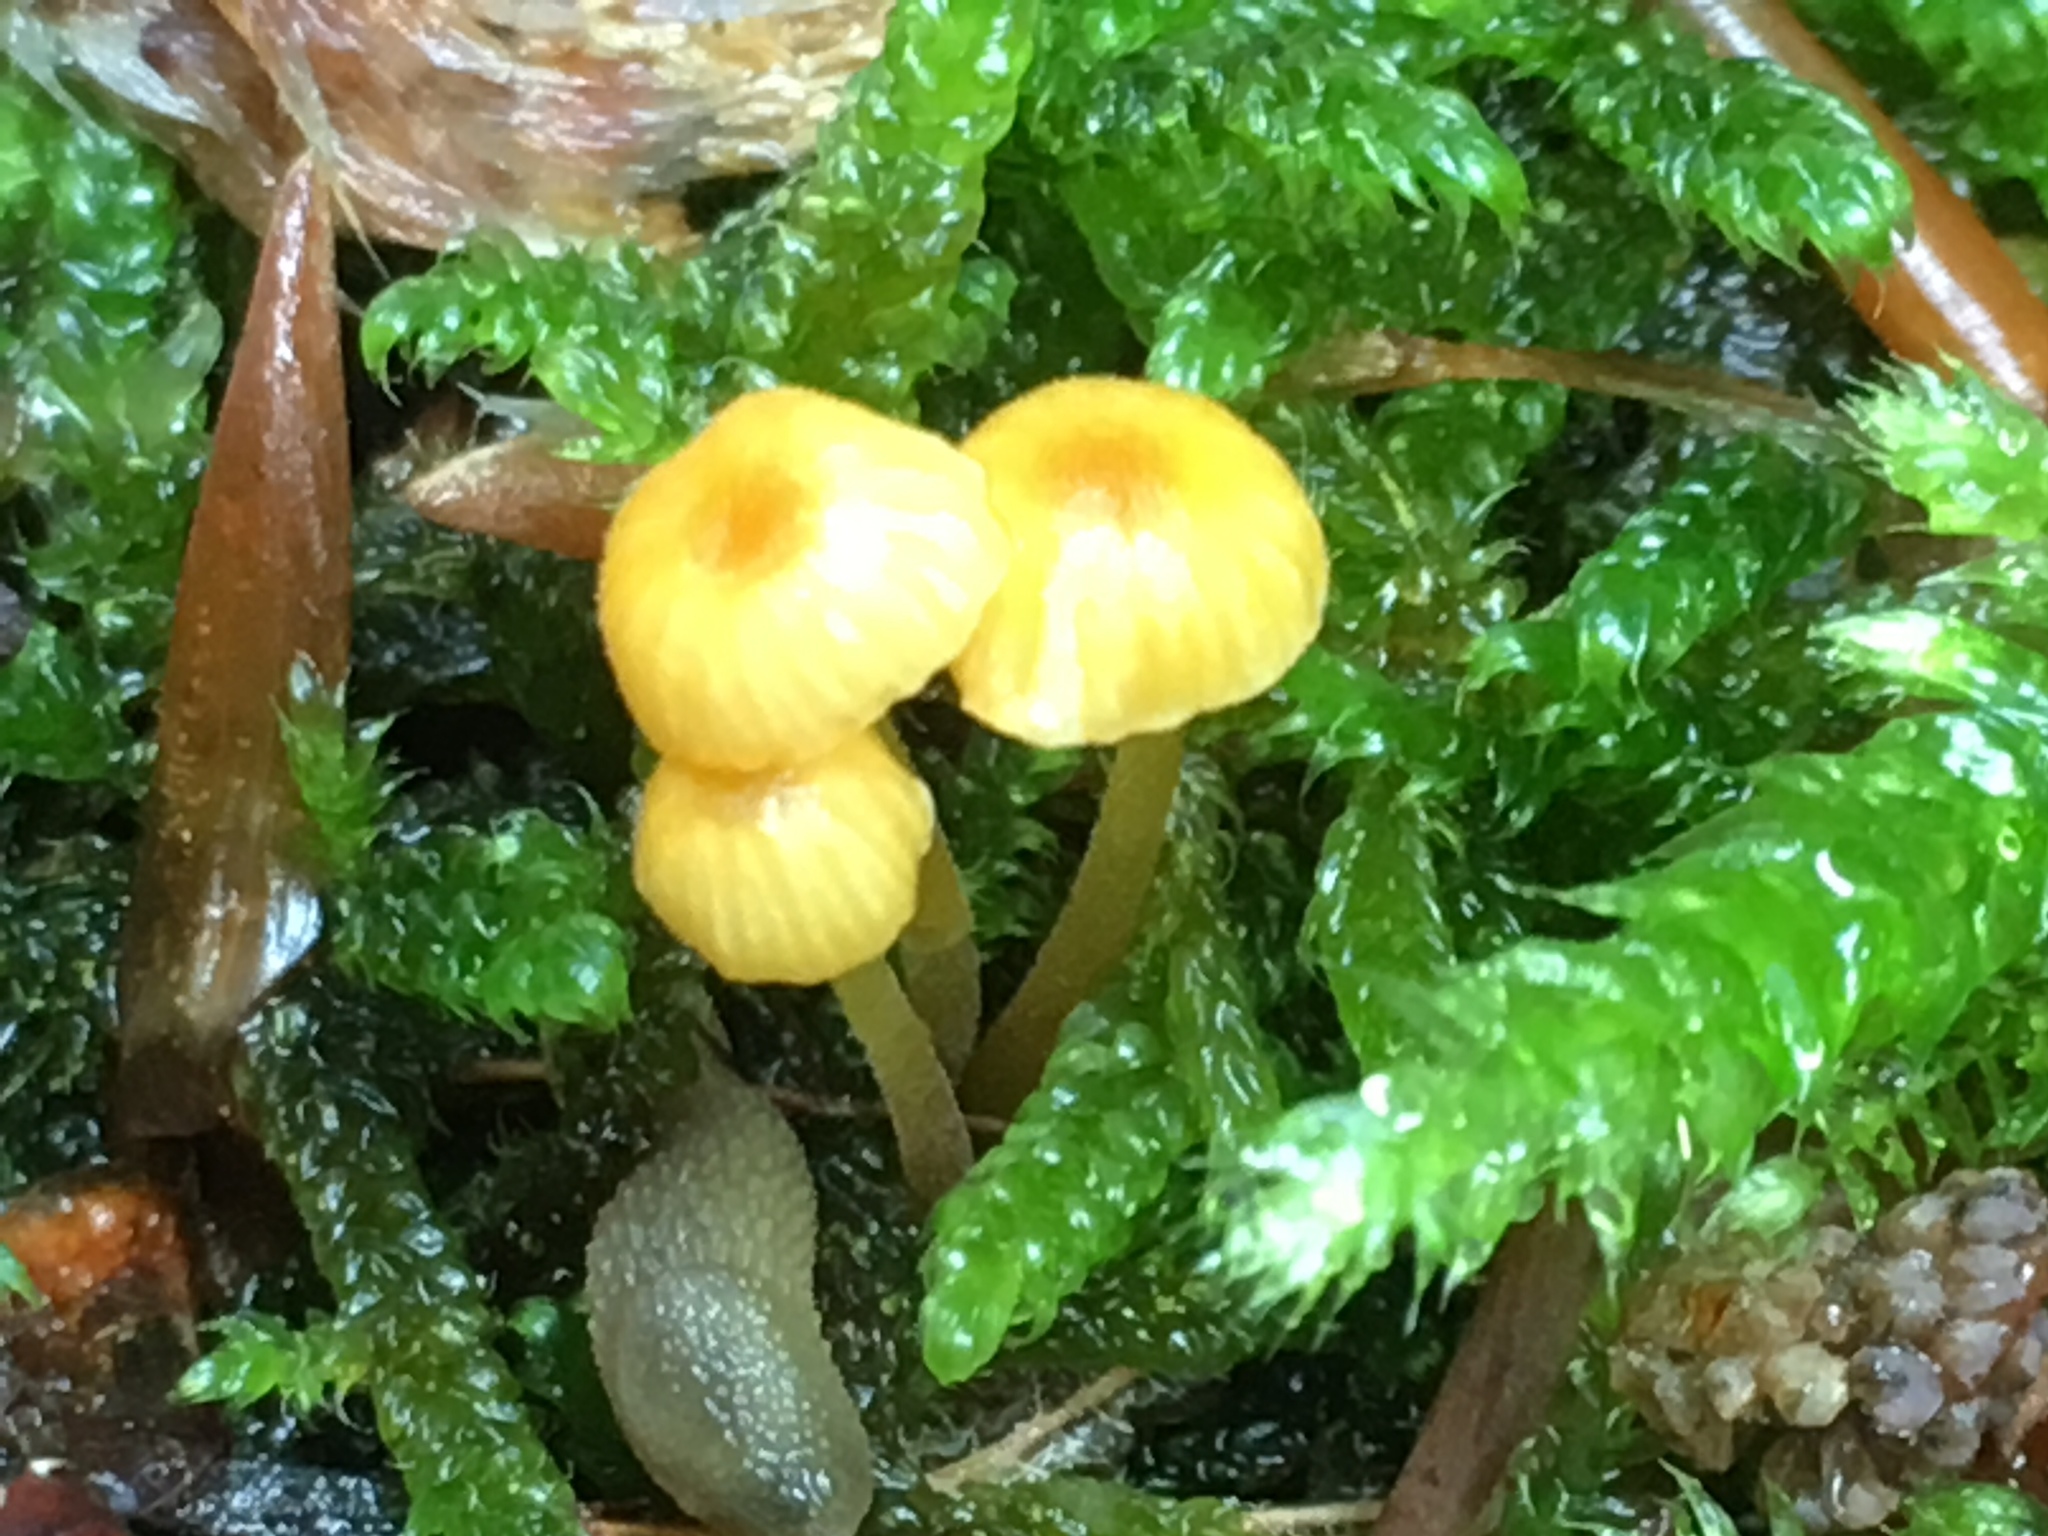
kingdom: Fungi
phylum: Basidiomycota
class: Agaricomycetes
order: Hymenochaetales
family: Rickenellaceae
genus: Rickenella
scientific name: Rickenella fibula
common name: Orange mosscap
